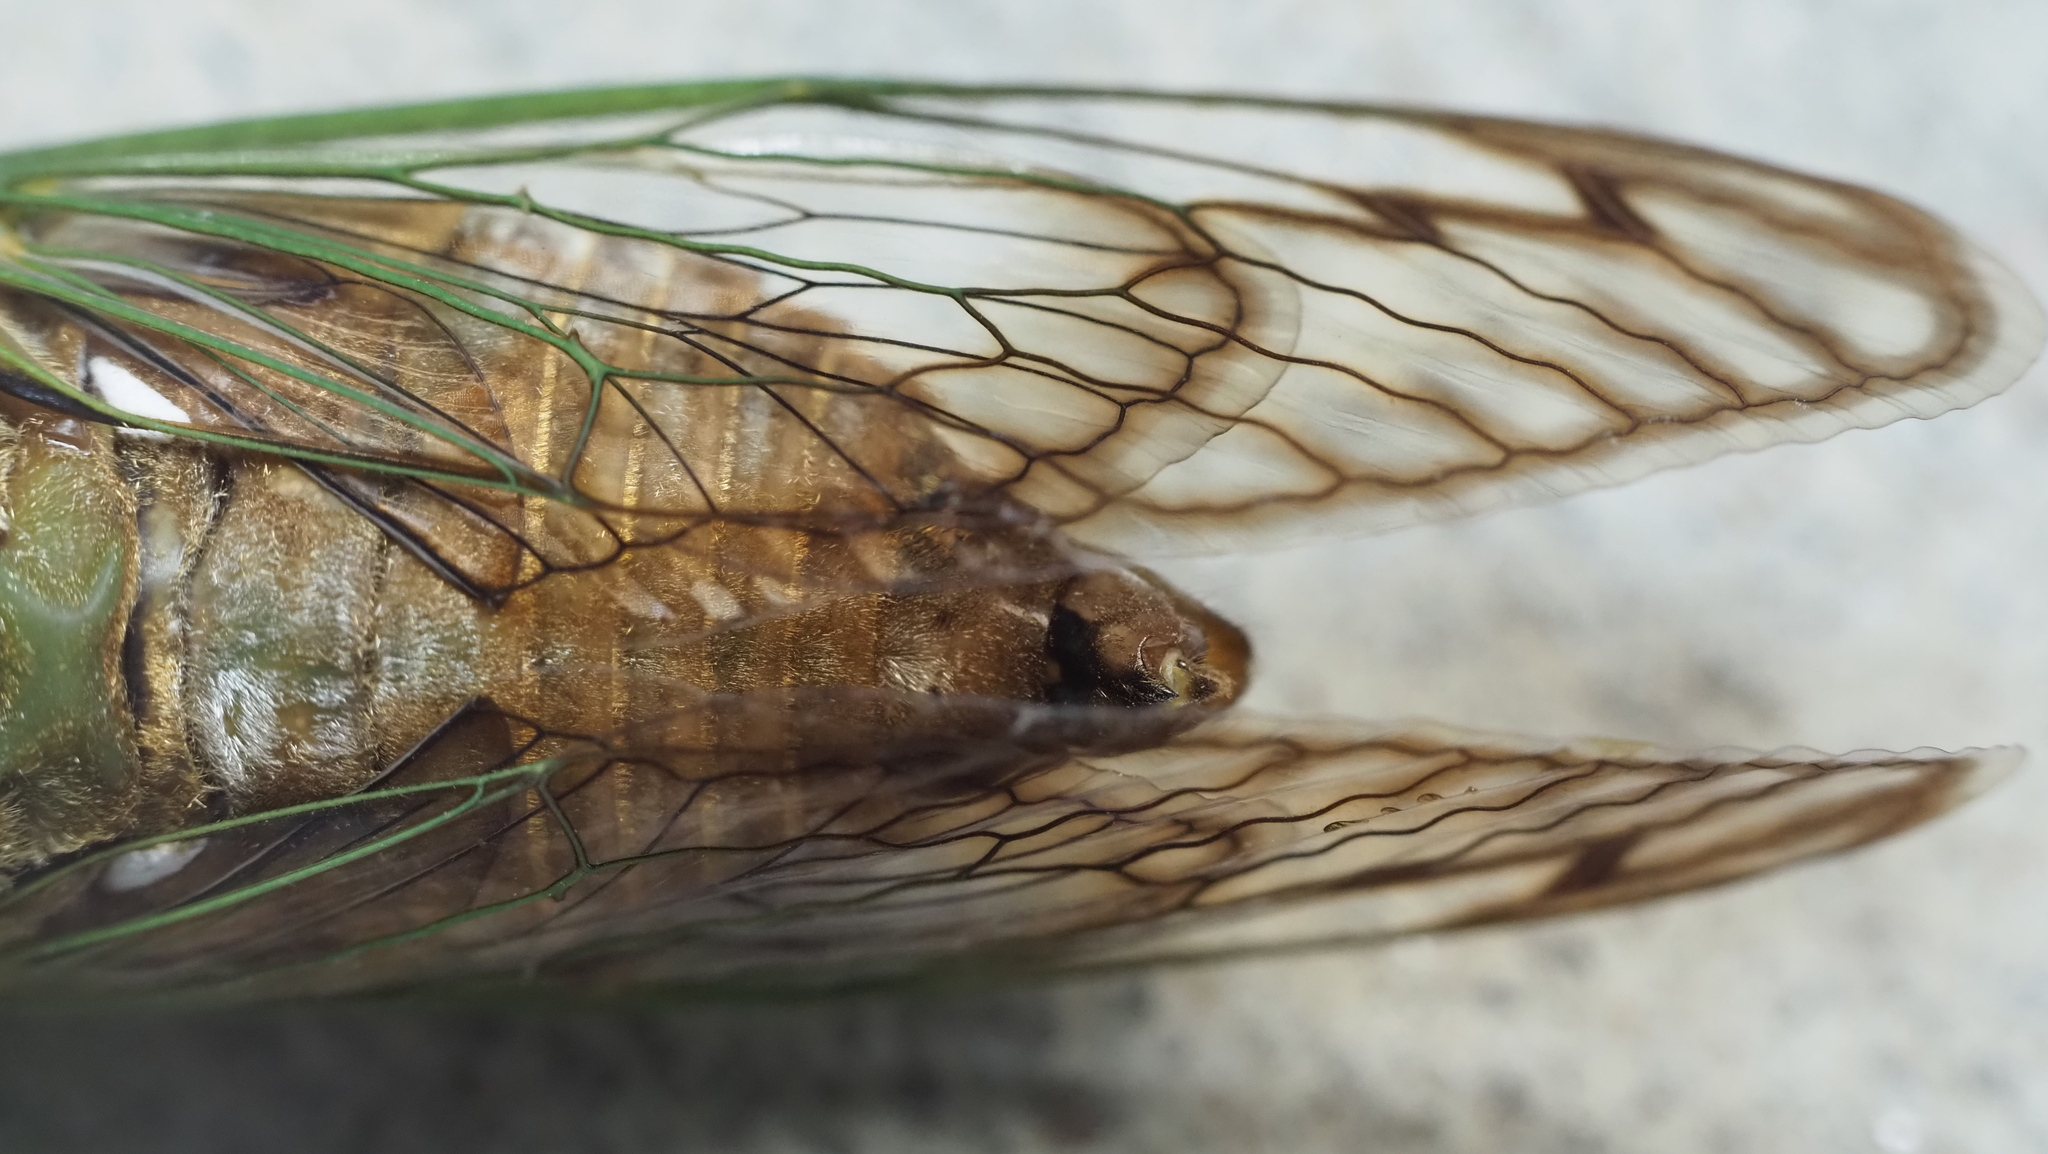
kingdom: Animalia
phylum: Arthropoda
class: Insecta
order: Hemiptera
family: Cicadidae
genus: Neotibicen
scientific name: Neotibicen superbus
